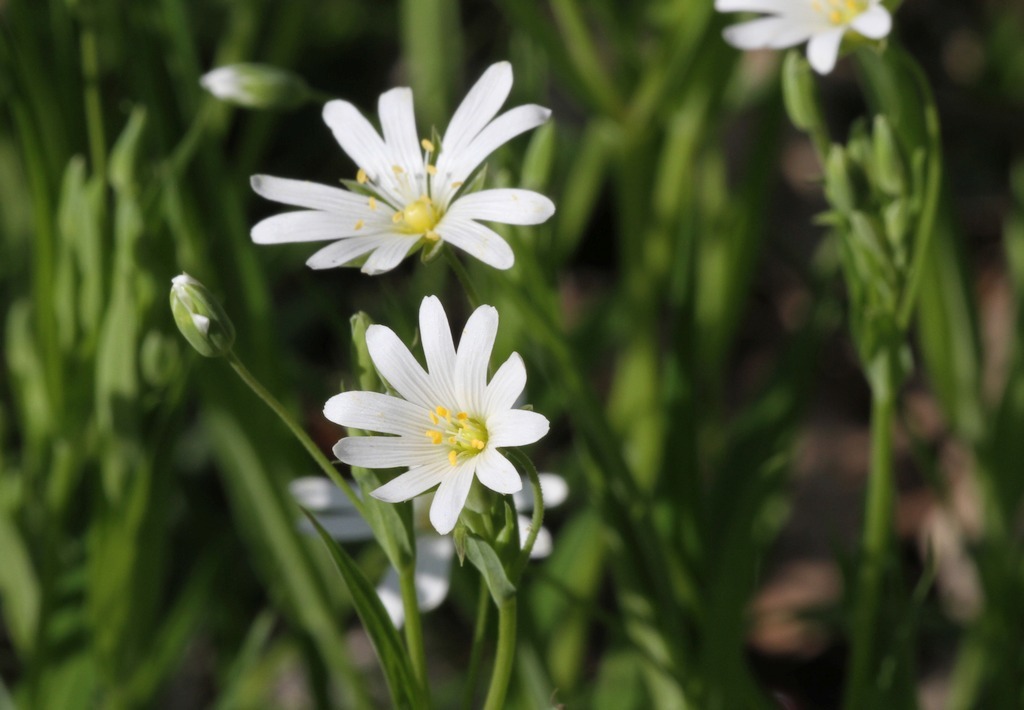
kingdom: Plantae
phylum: Tracheophyta
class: Magnoliopsida
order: Caryophyllales
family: Caryophyllaceae
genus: Rabelera
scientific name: Rabelera holostea
